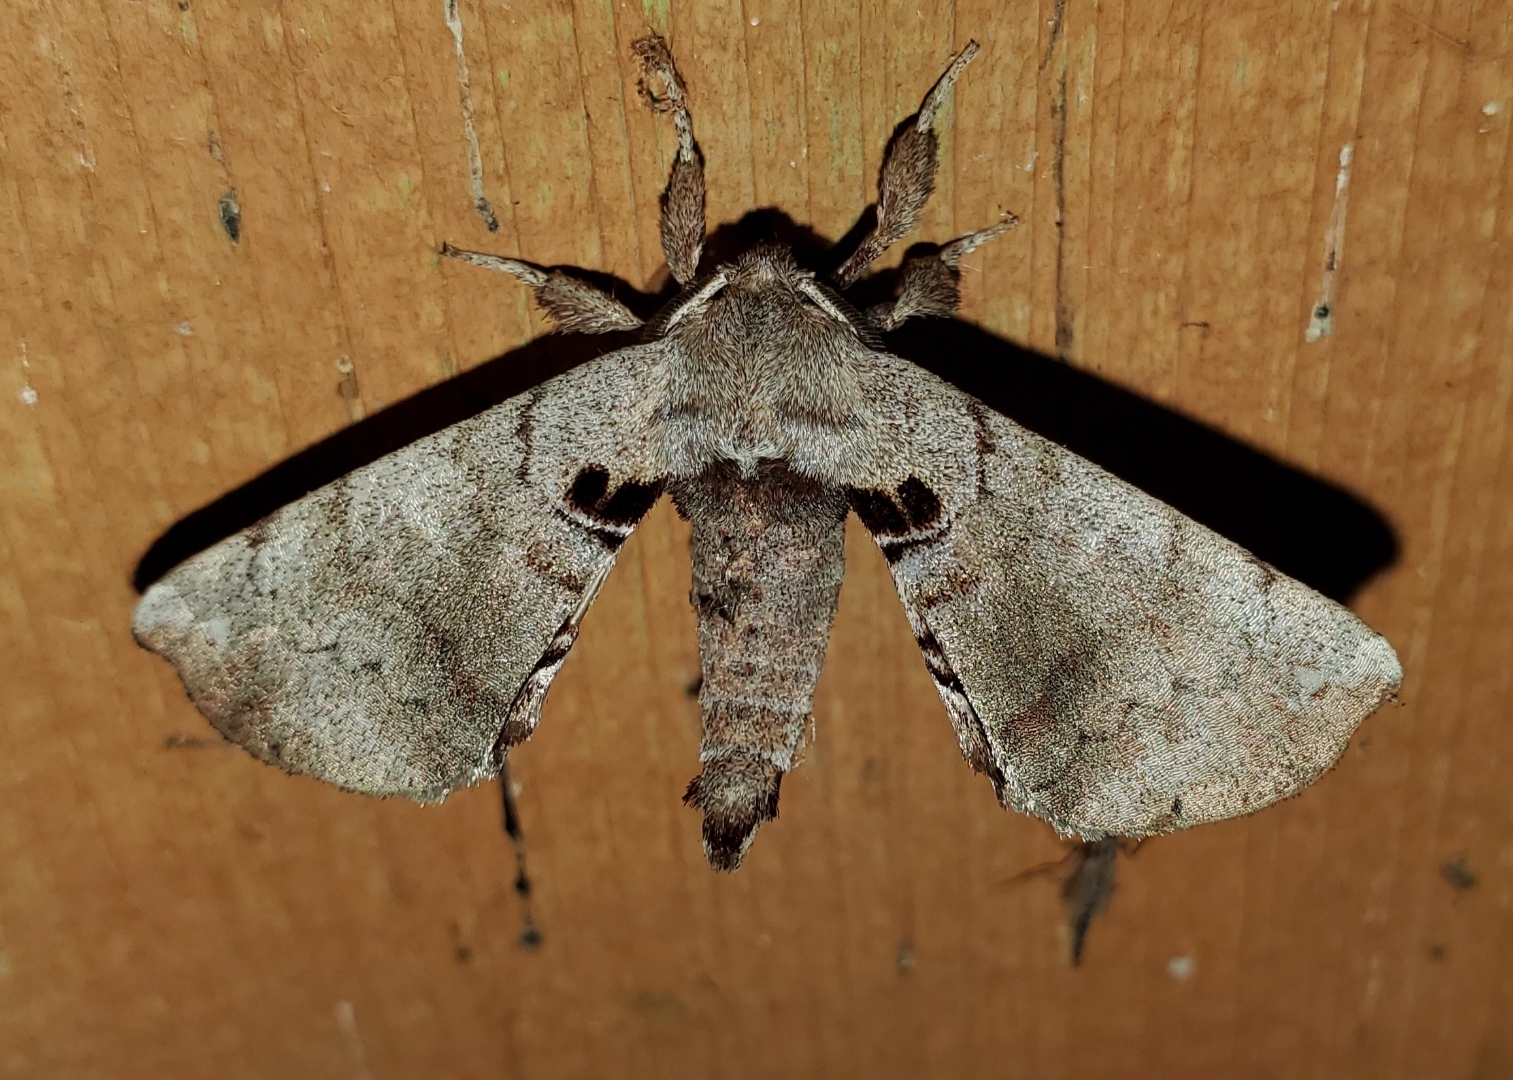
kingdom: Animalia
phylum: Arthropoda
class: Insecta
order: Lepidoptera
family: Apatelodidae
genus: Hygrochroa
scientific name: Hygrochroa Apatelodes torrefacta
